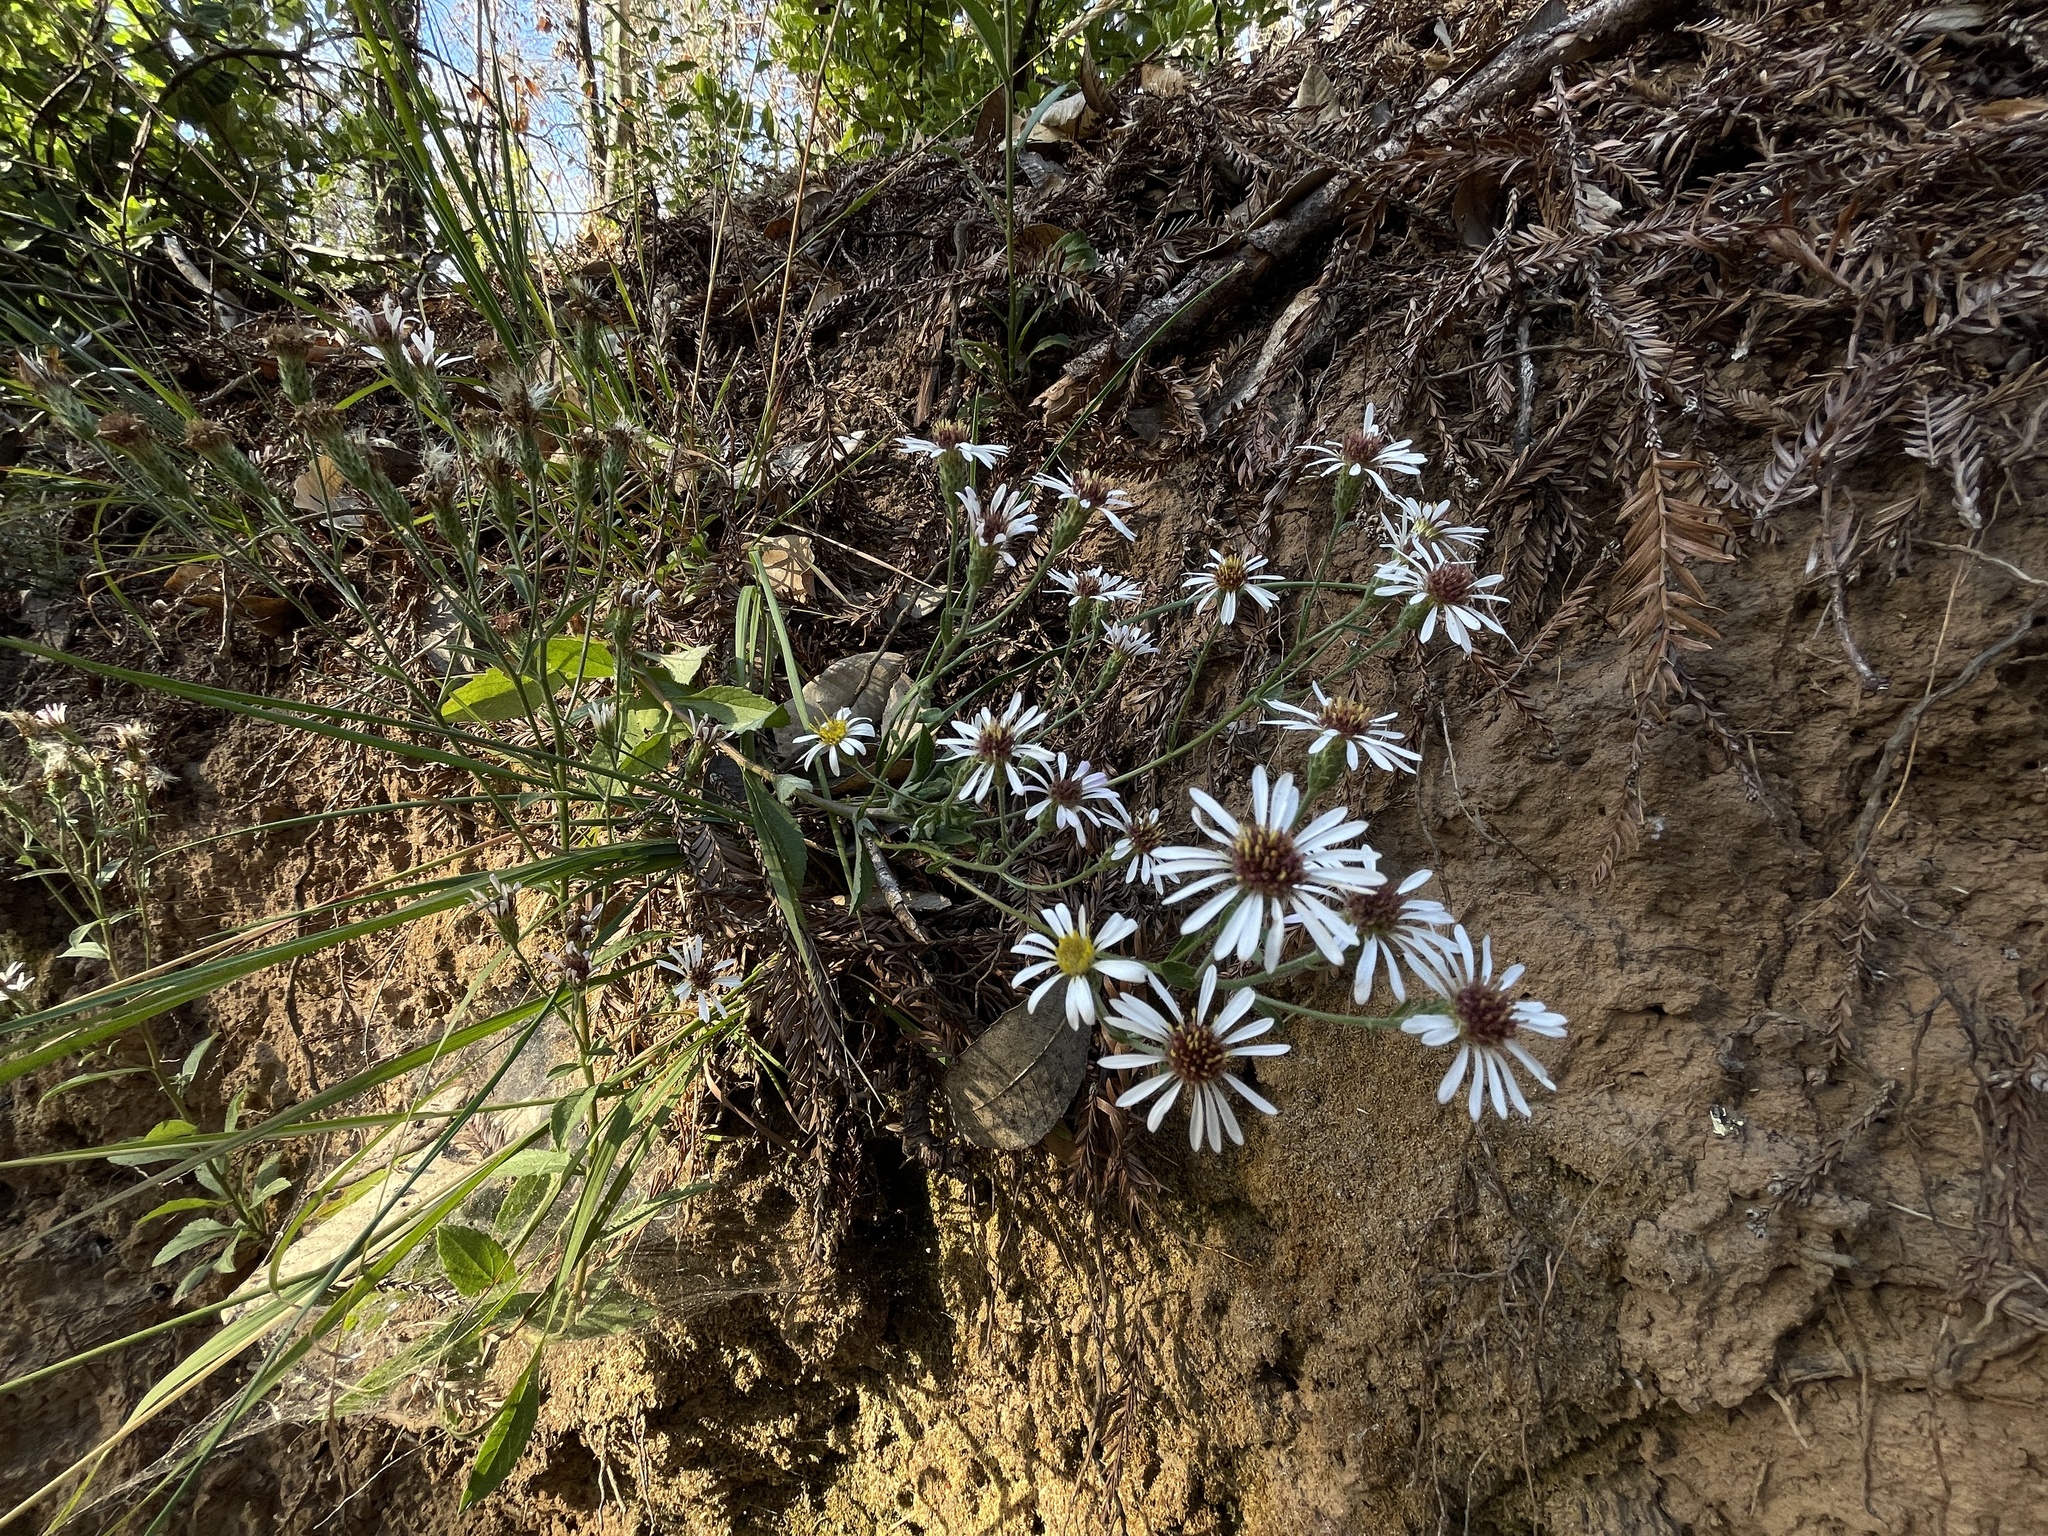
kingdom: Plantae
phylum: Tracheophyta
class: Magnoliopsida
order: Asterales
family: Asteraceae
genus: Eurybia
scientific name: Eurybia radulina
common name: Rough-leaved aster
